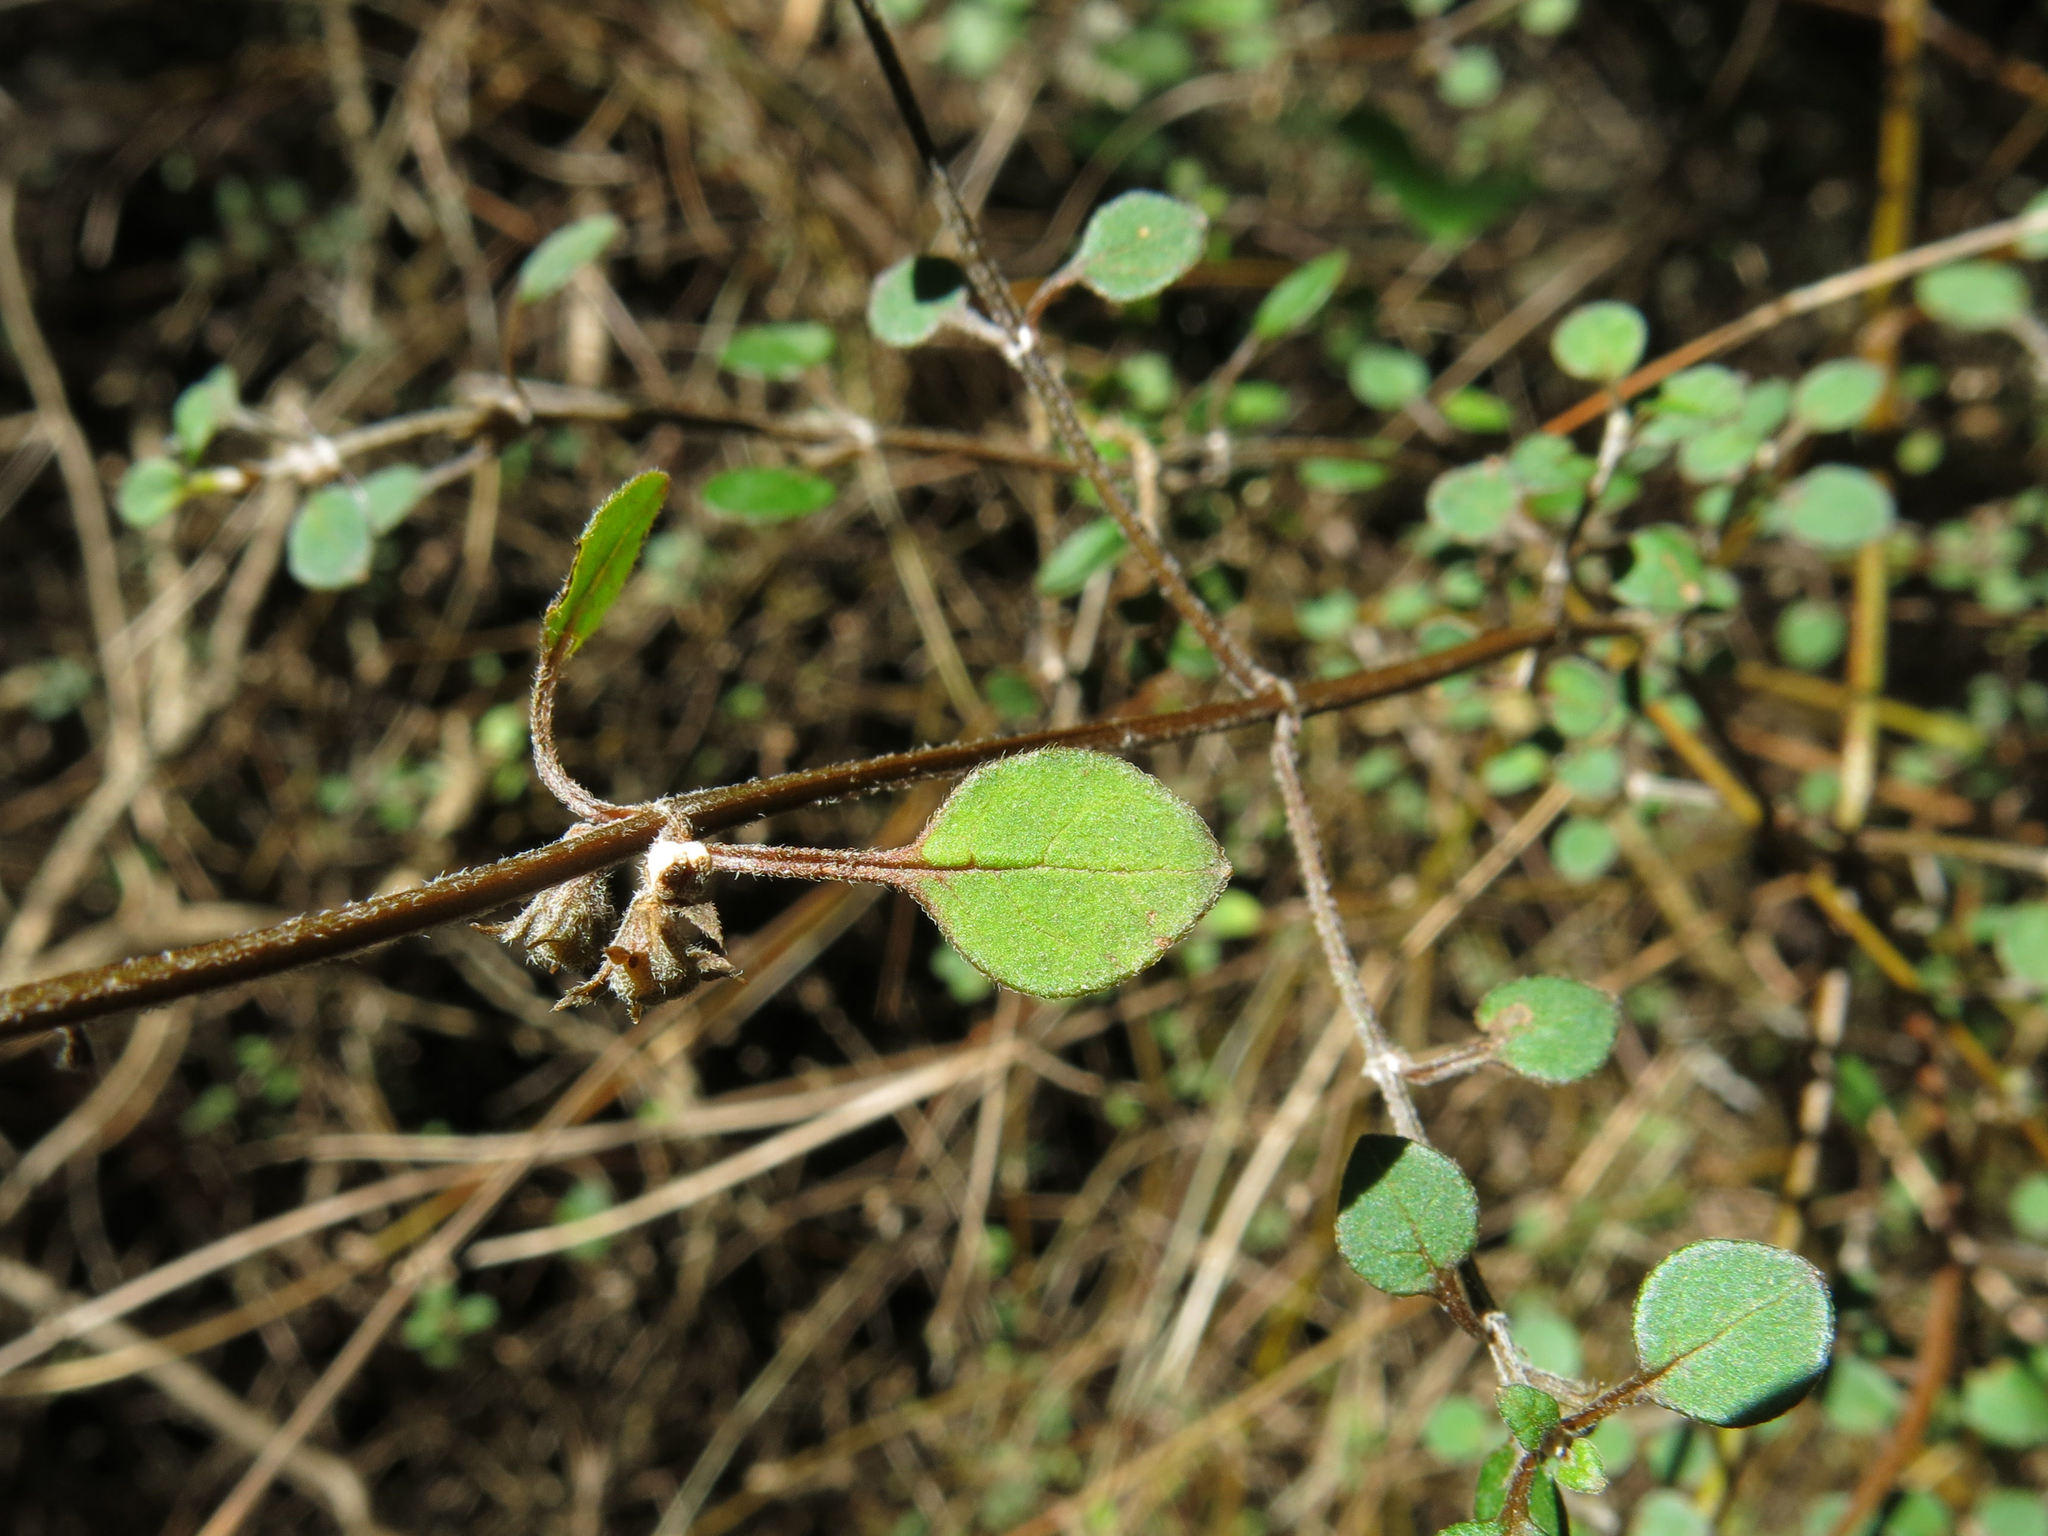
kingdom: Plantae
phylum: Tracheophyta
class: Magnoliopsida
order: Lamiales
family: Lamiaceae
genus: Teucrium
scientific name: Teucrium parvifolium
